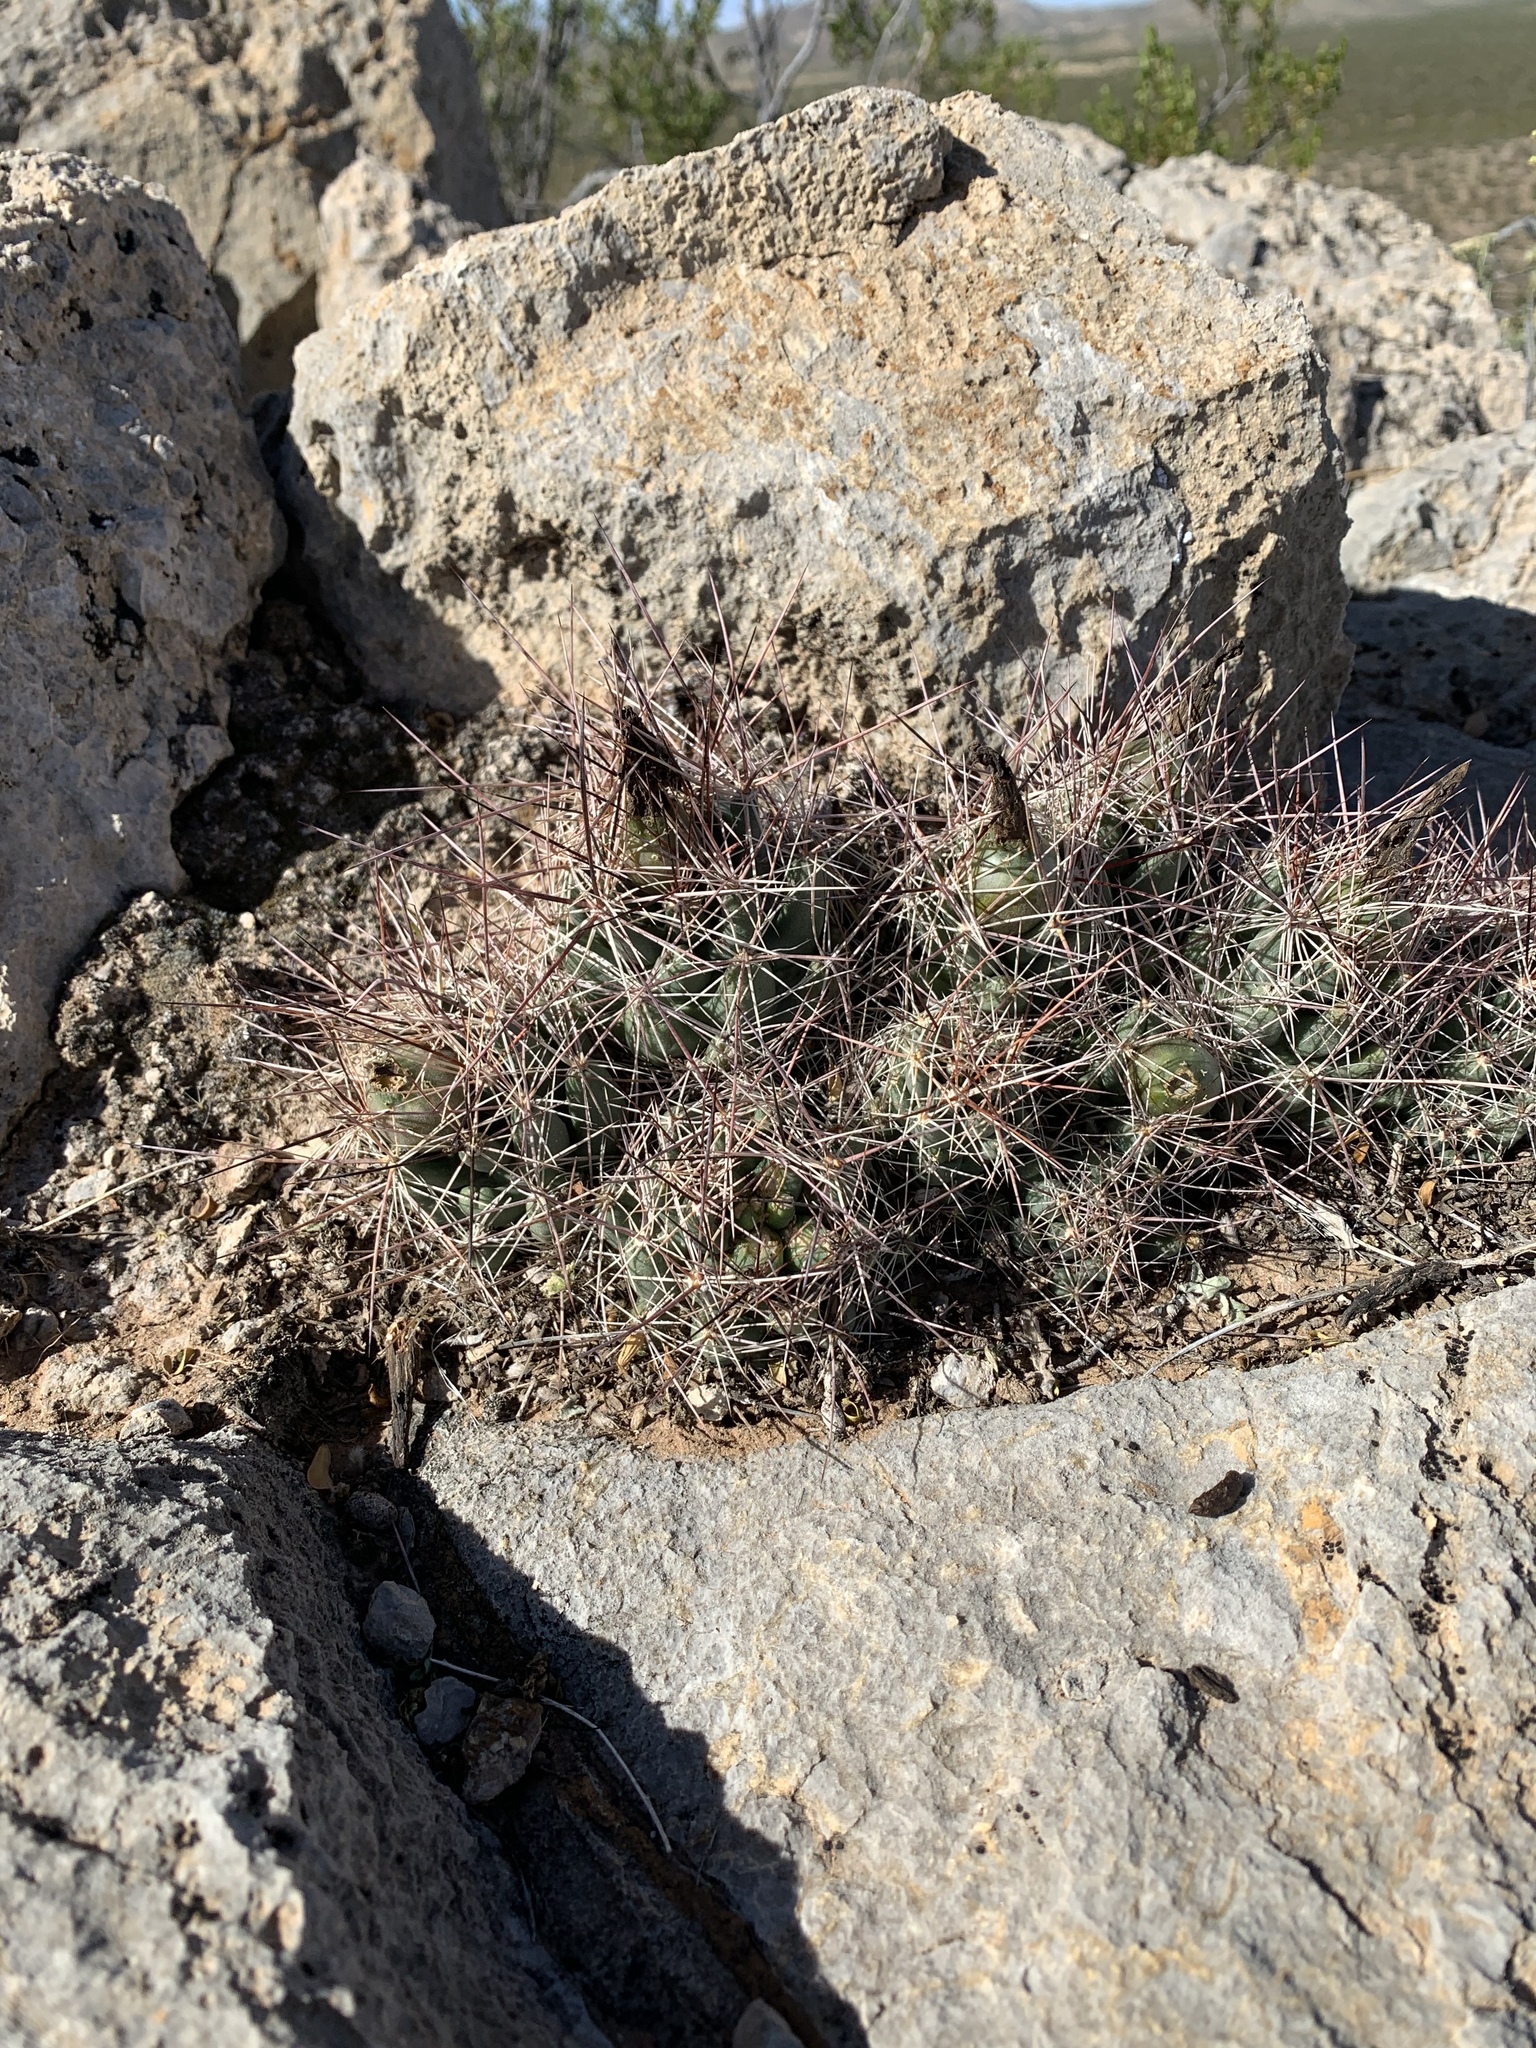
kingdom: Plantae
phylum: Tracheophyta
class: Magnoliopsida
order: Caryophyllales
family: Cactaceae
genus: Coryphantha
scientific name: Coryphantha macromeris
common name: Nipple beehive cactus
